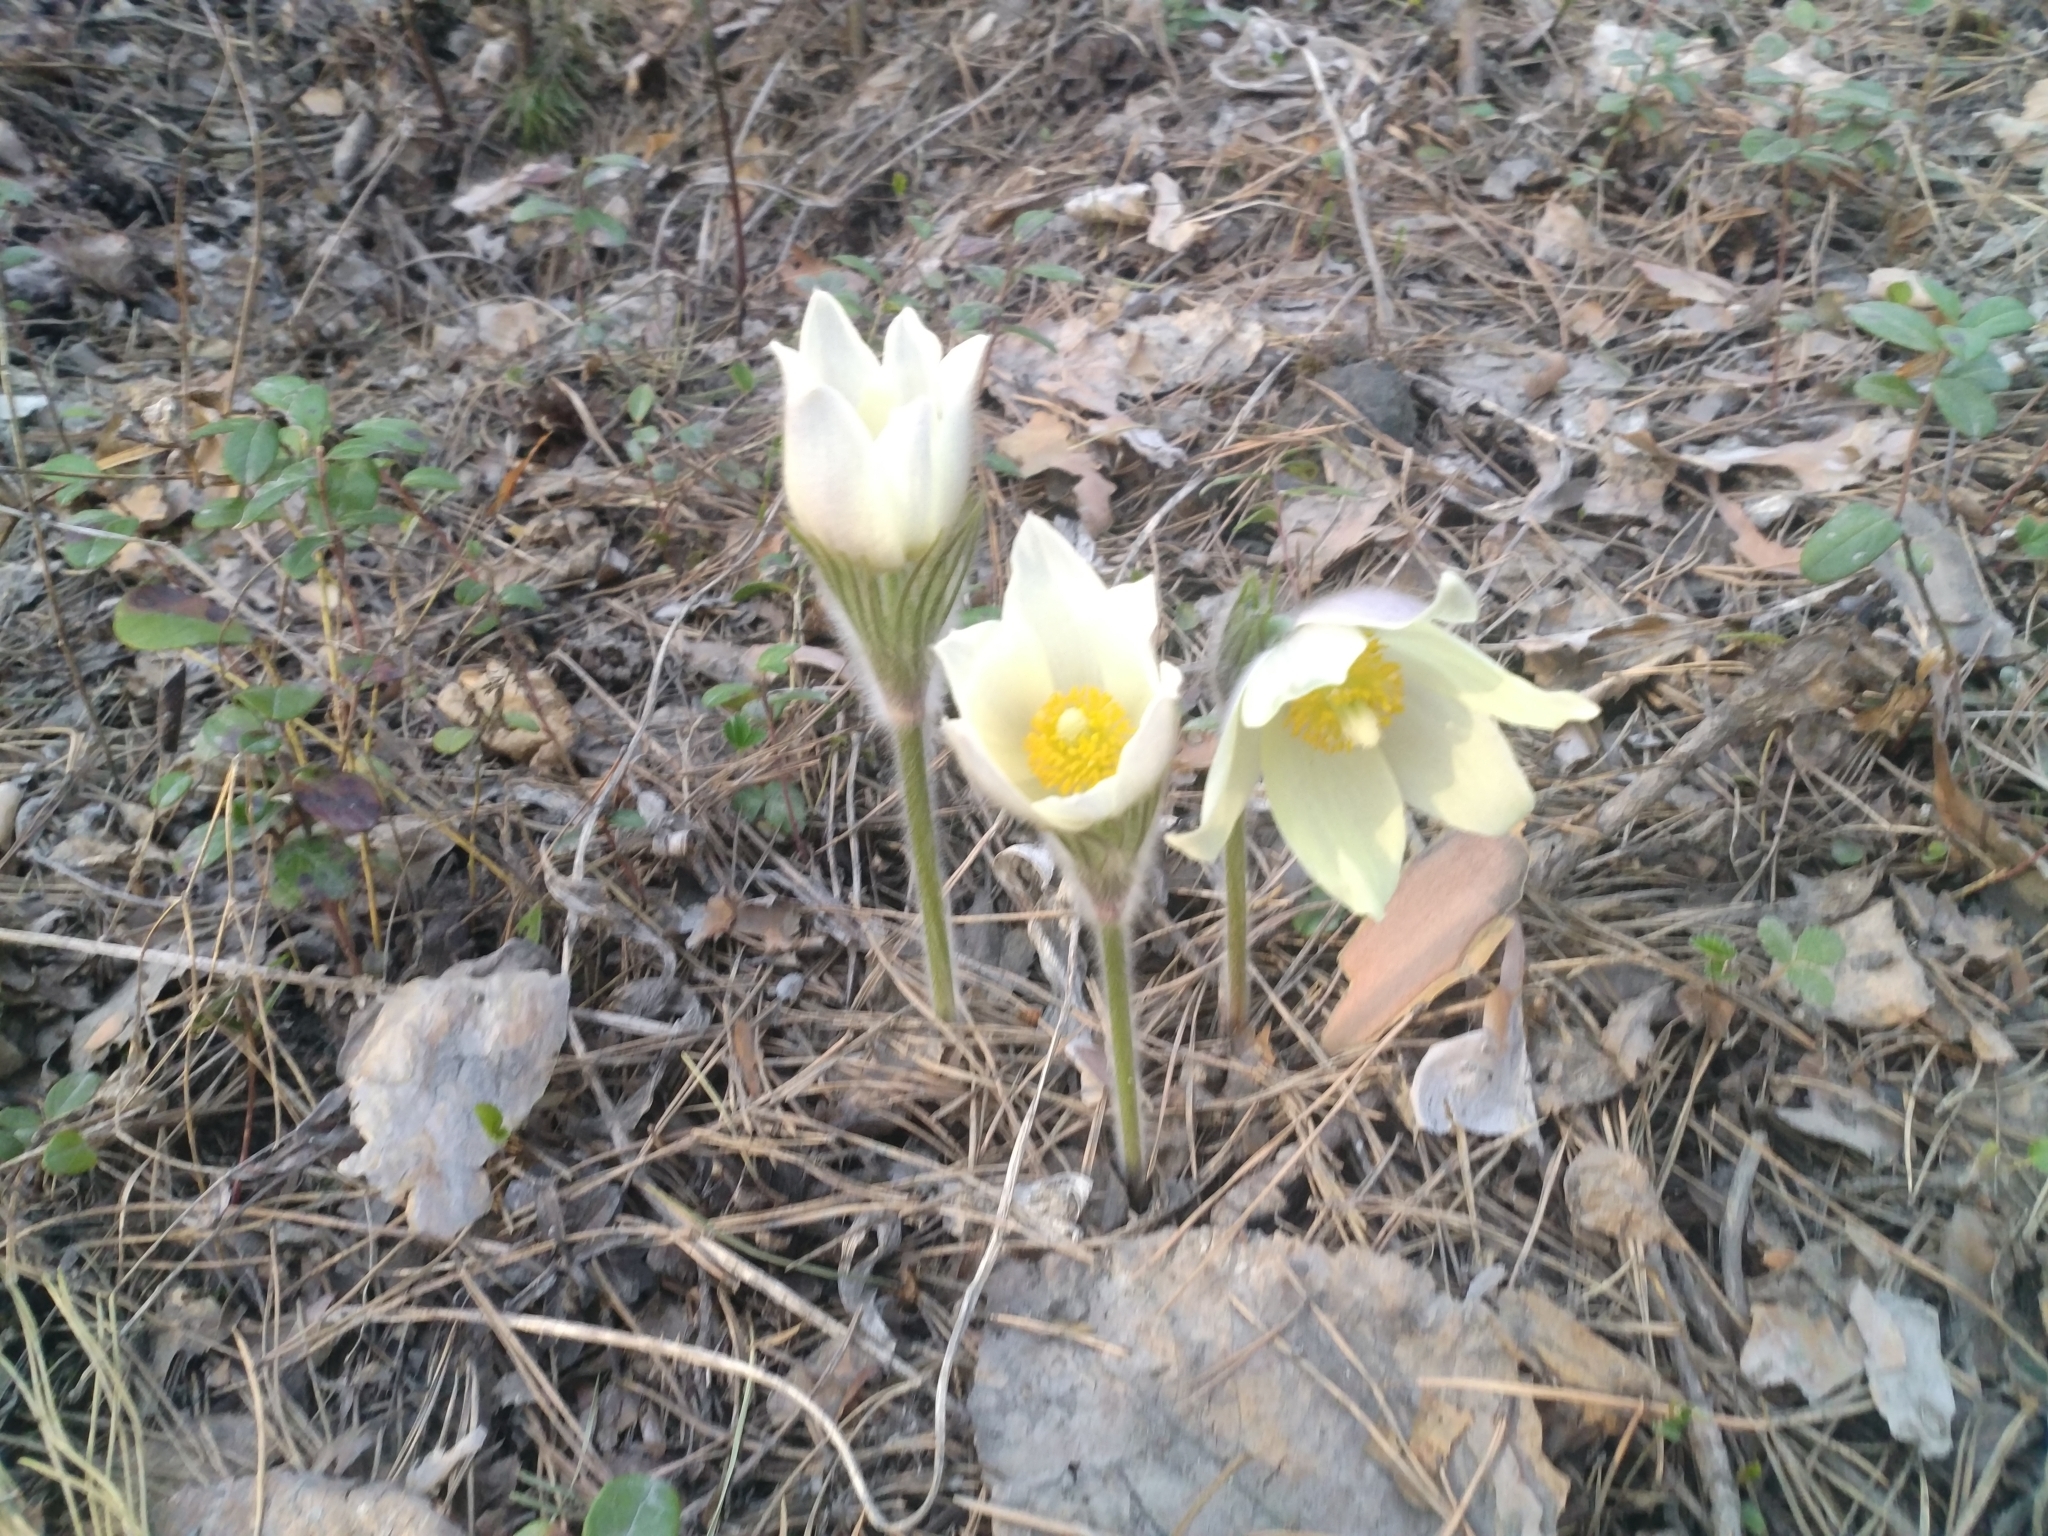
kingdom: Plantae
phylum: Tracheophyta
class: Magnoliopsida
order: Ranunculales
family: Ranunculaceae
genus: Pulsatilla
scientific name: Pulsatilla patens
